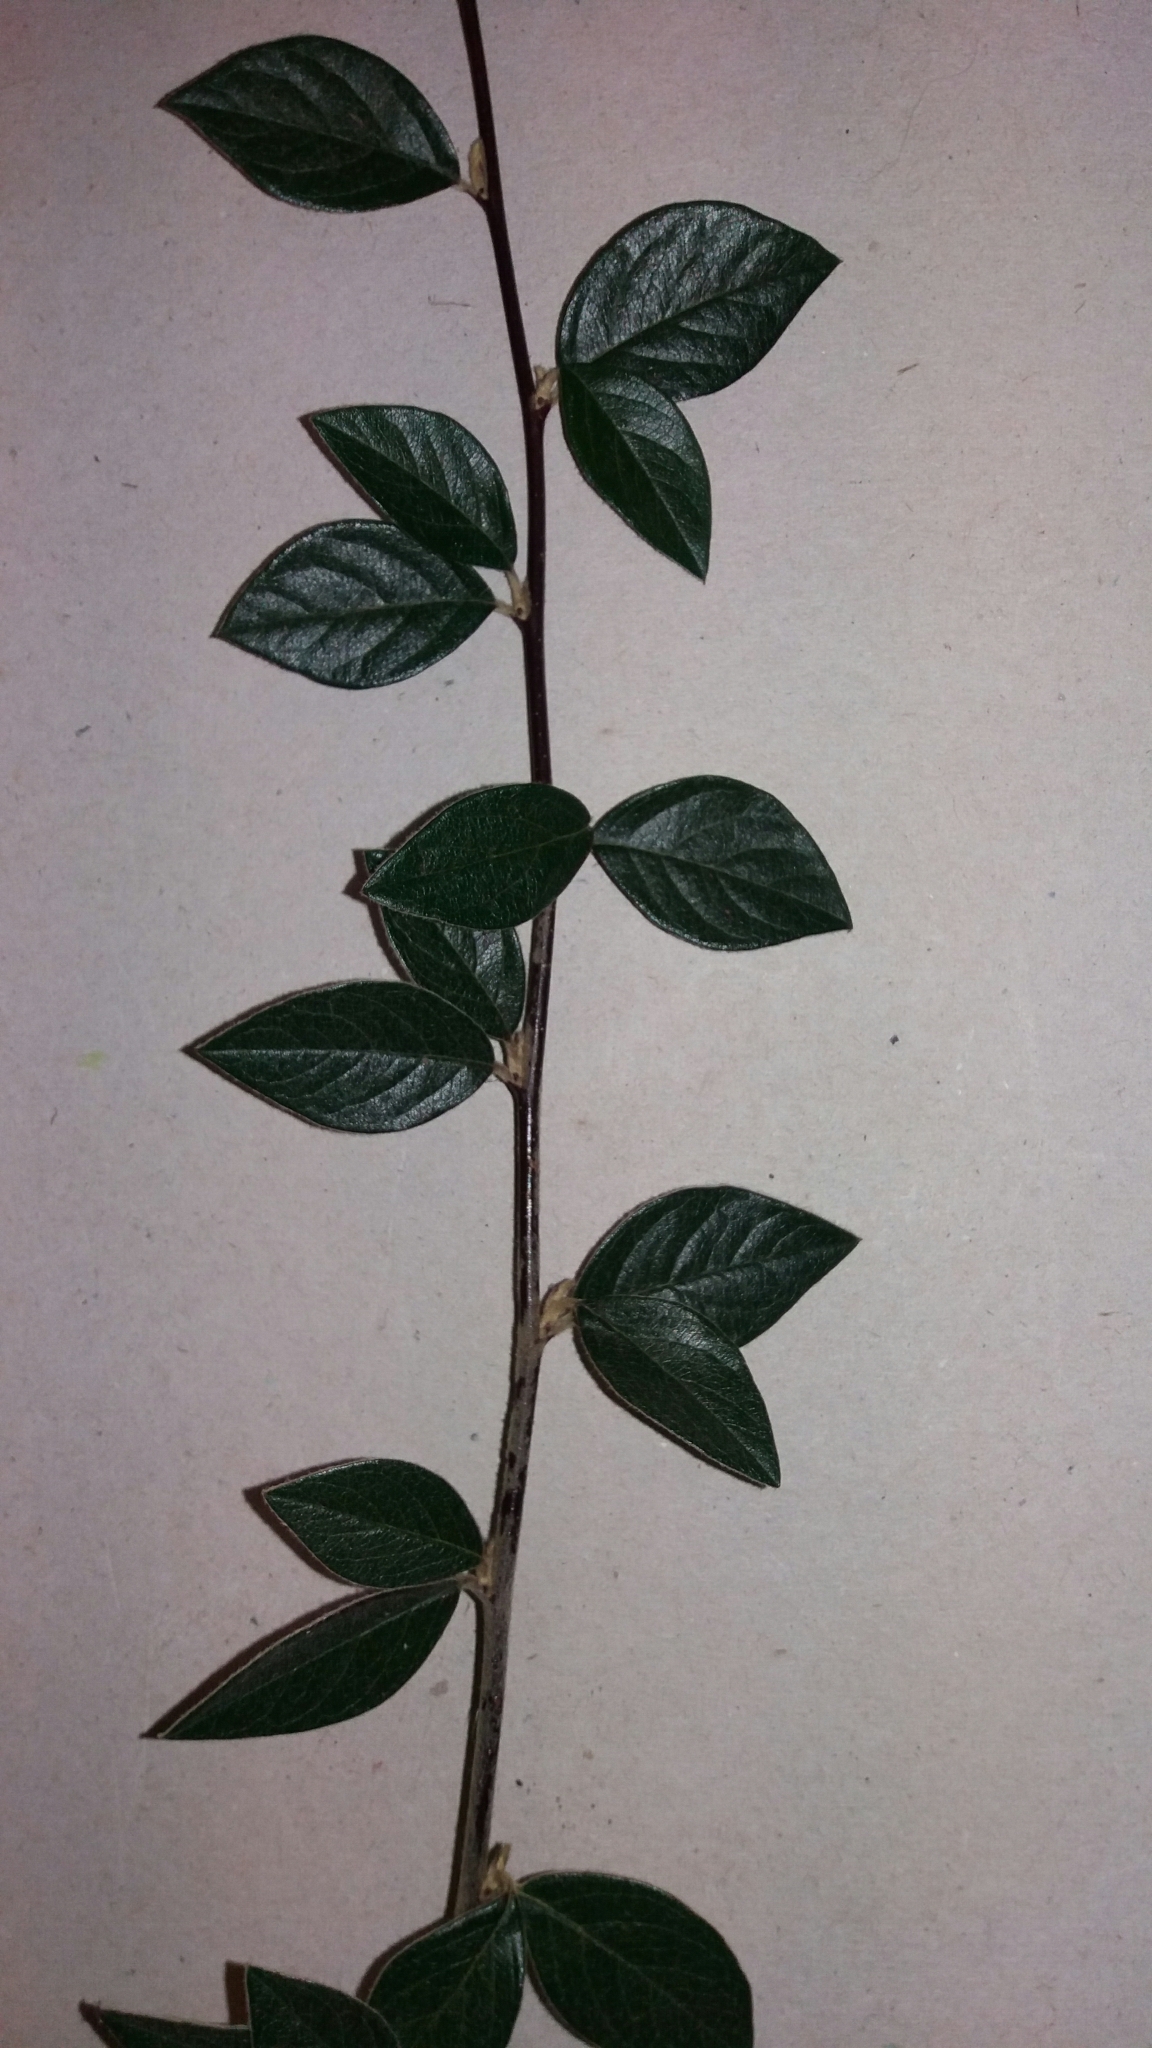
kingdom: Plantae
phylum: Tracheophyta
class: Magnoliopsida
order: Rosales
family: Rosaceae
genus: Cotoneaster
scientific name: Cotoneaster franchetii
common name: Franchet's cotoneaster
